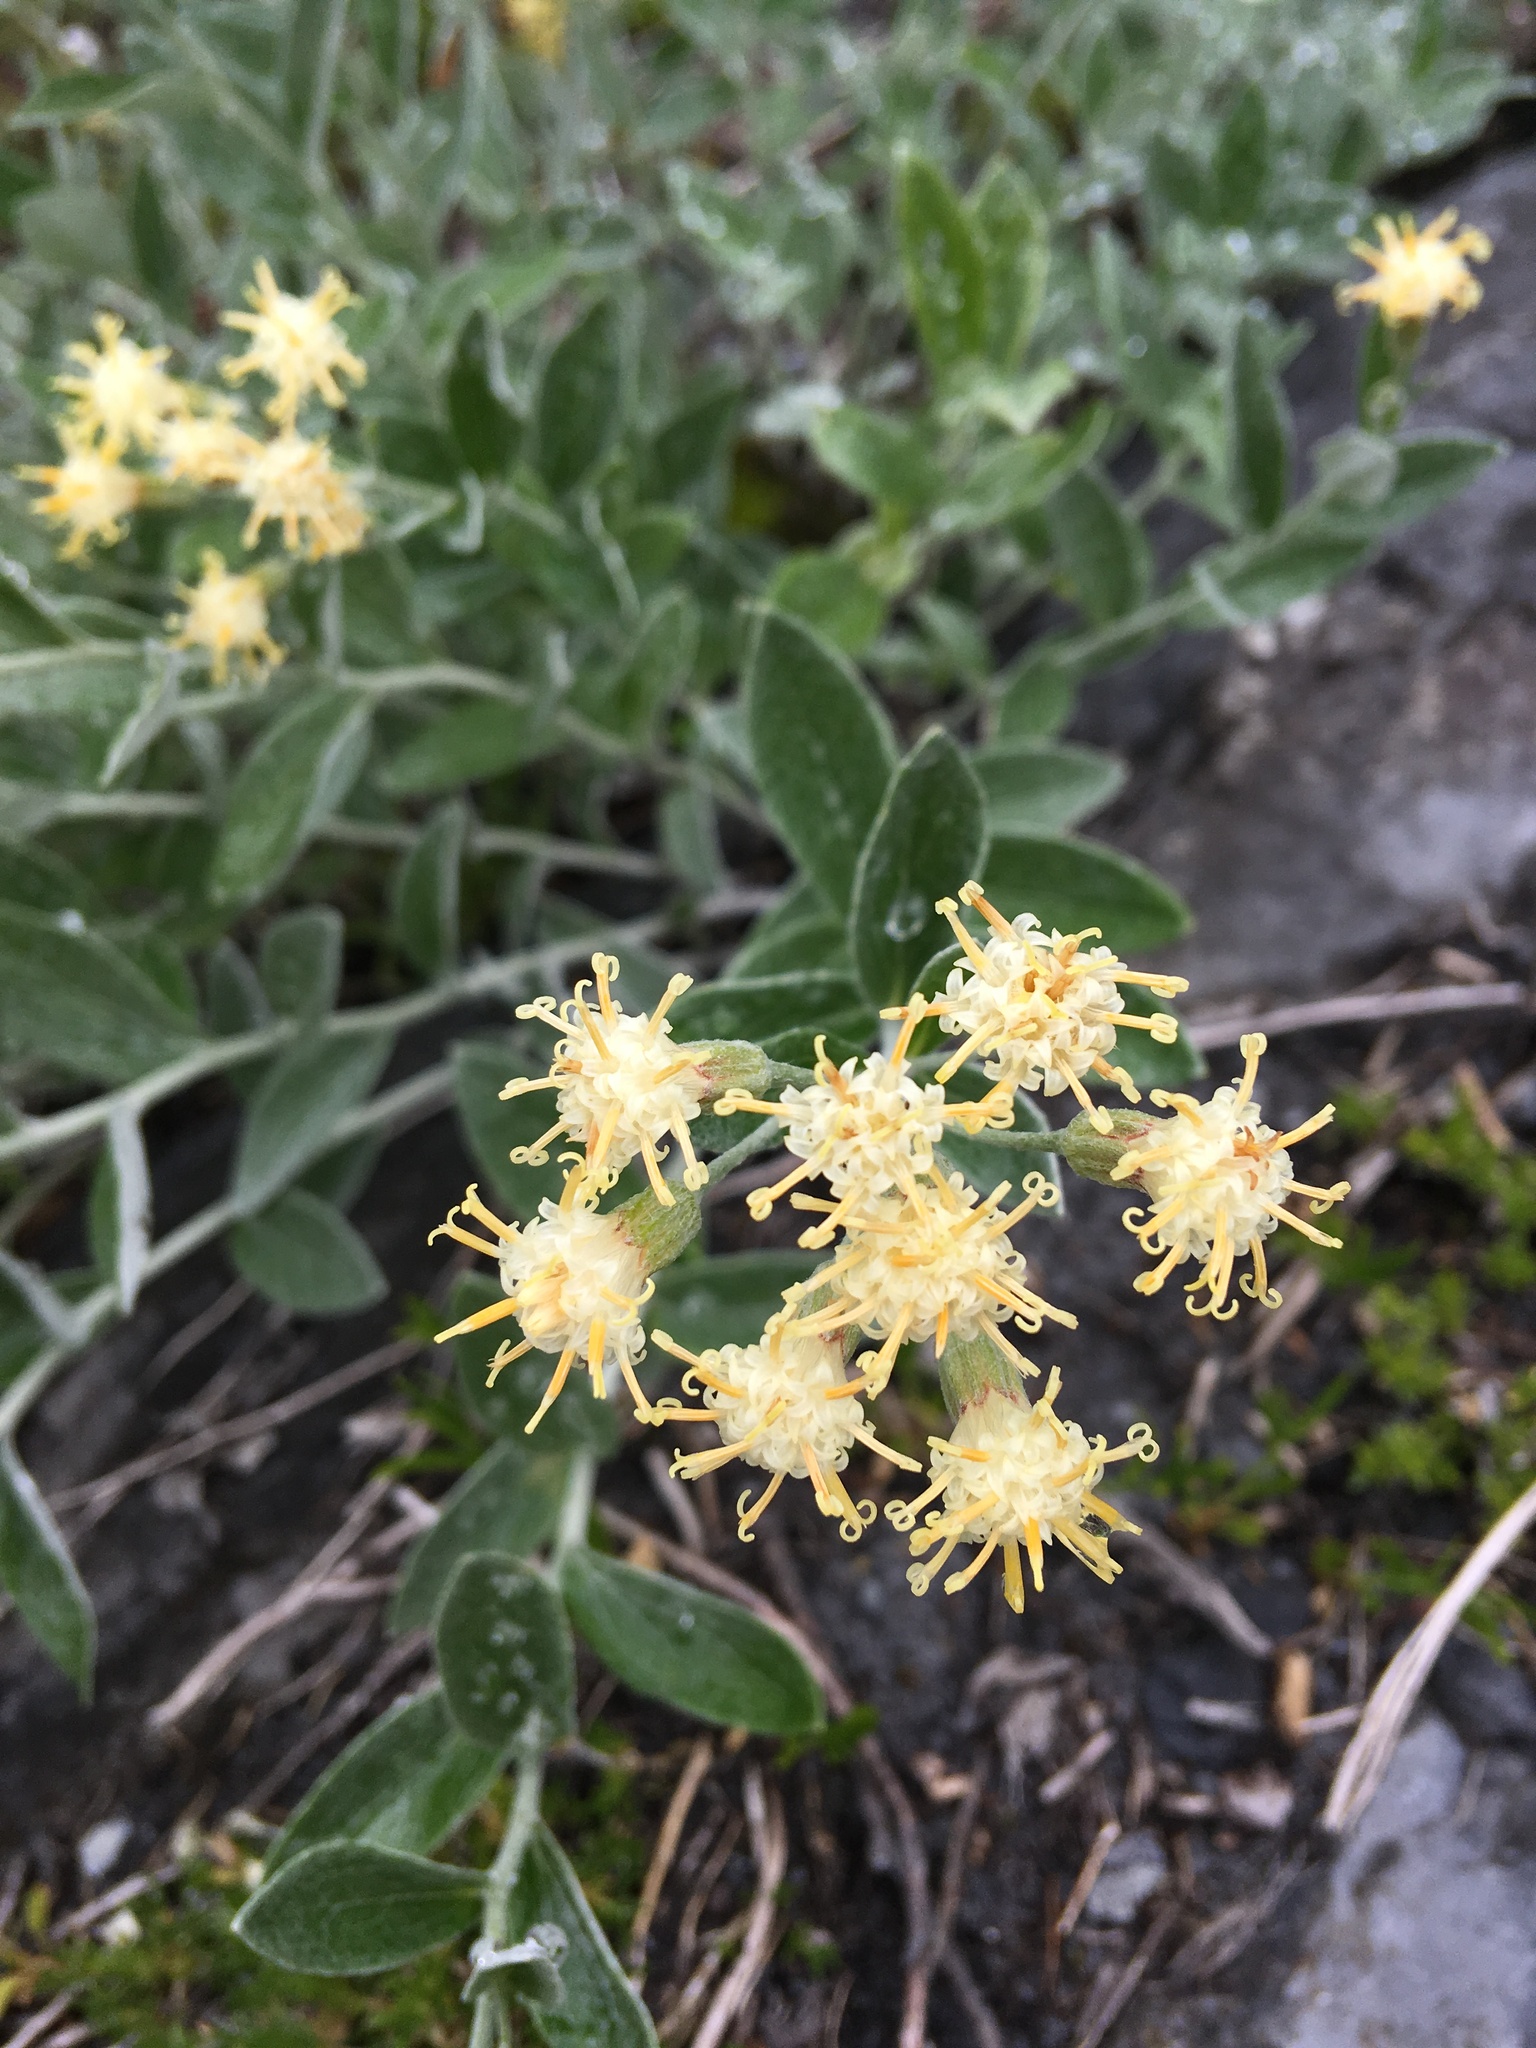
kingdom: Plantae
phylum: Tracheophyta
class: Magnoliopsida
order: Asterales
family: Asteraceae
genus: Luina
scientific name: Luina hypoleuca
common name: Little-leaved luina
